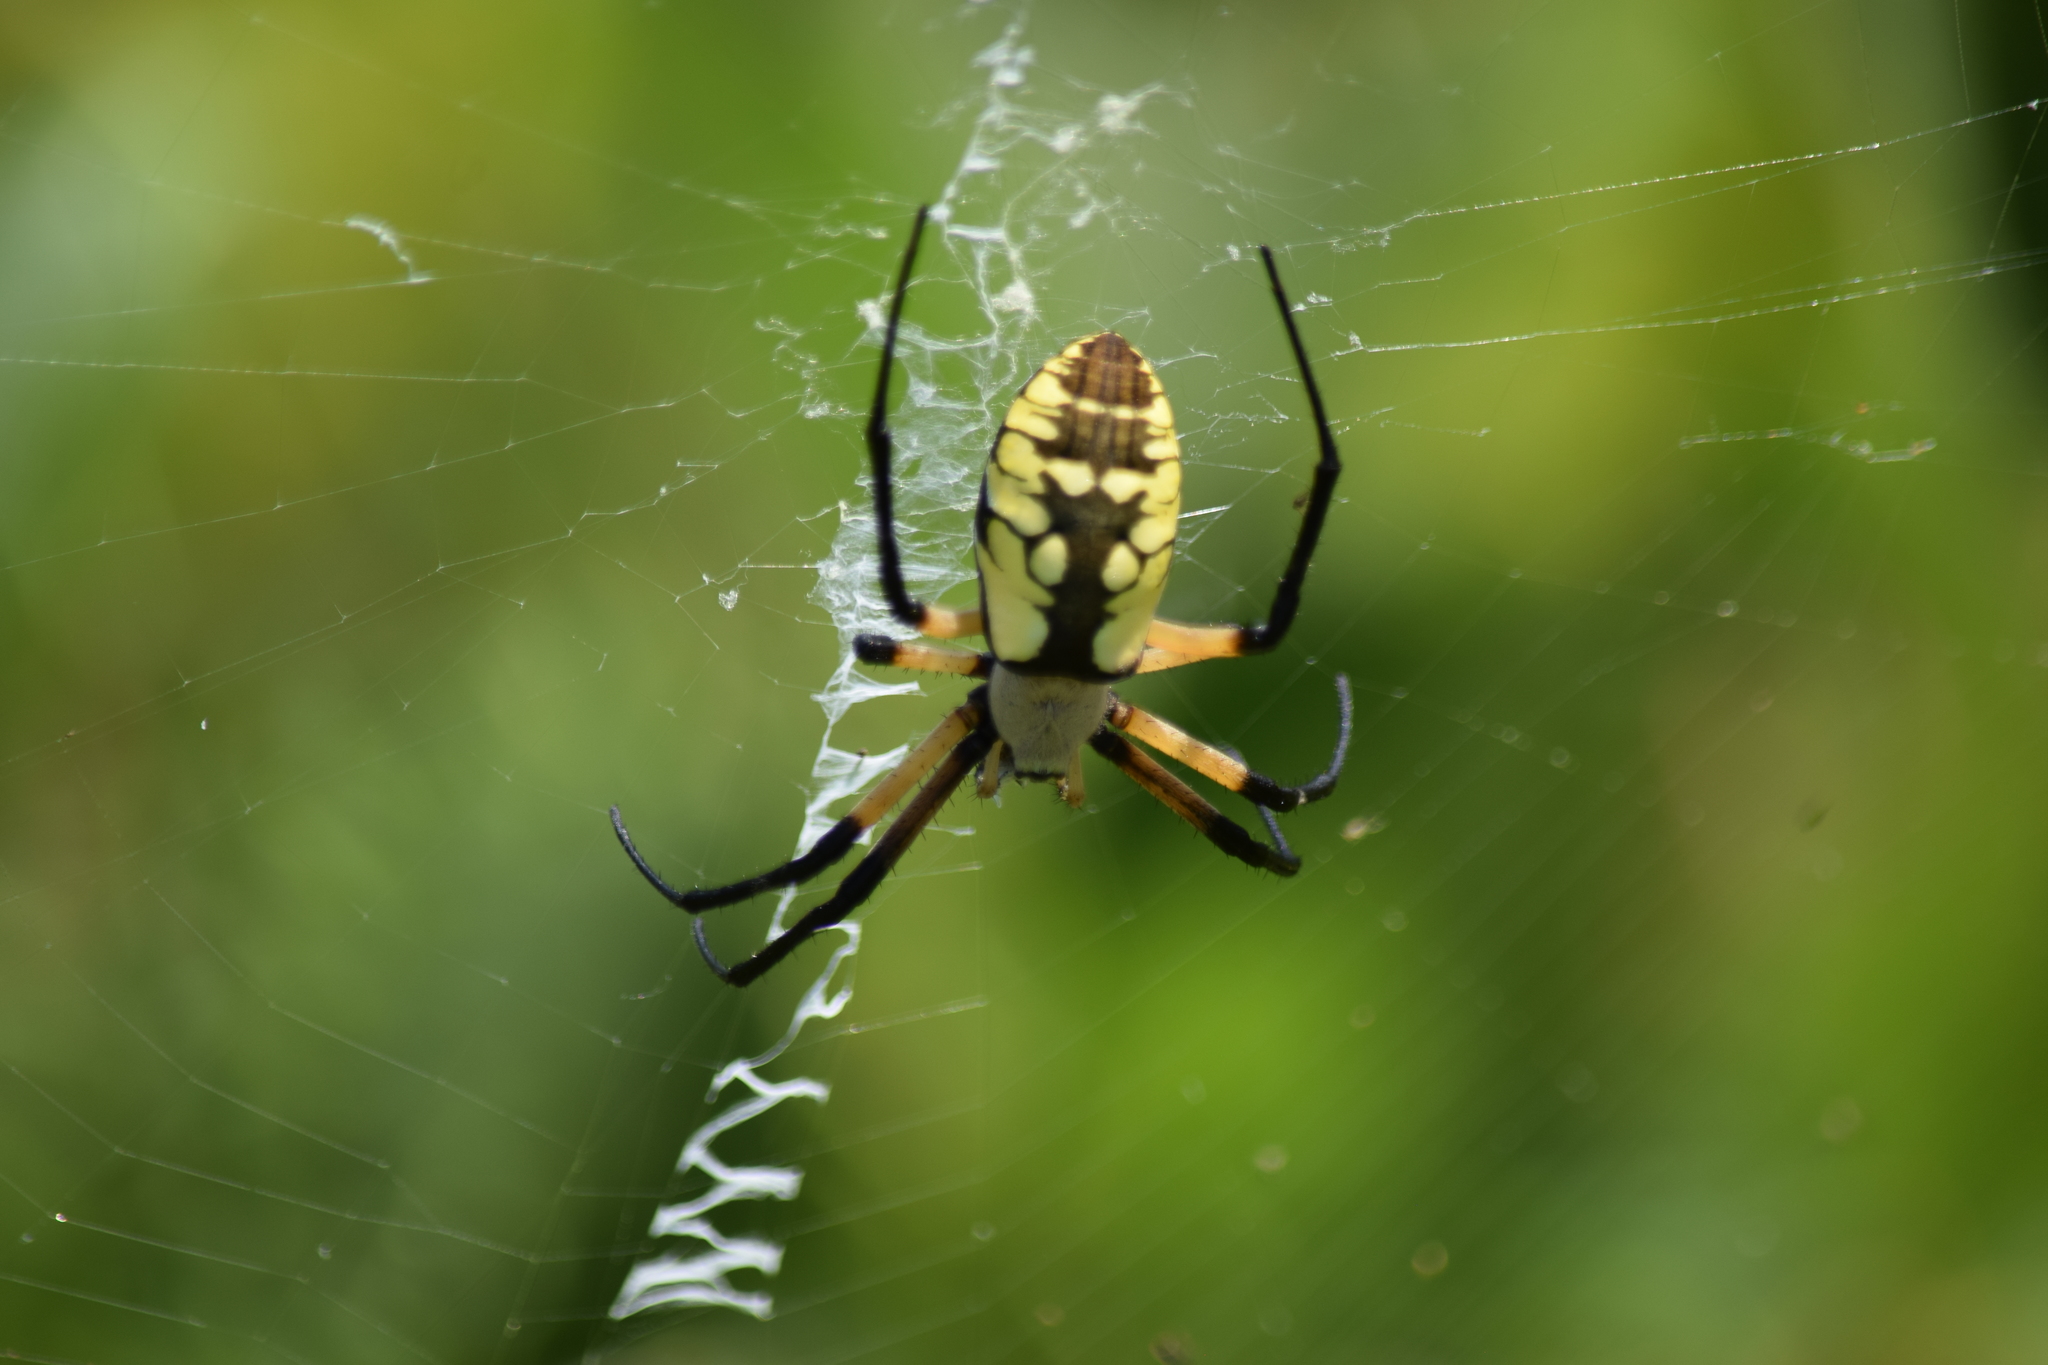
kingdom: Animalia
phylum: Arthropoda
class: Arachnida
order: Araneae
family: Araneidae
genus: Argiope
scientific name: Argiope aurantia
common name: Orb weavers
